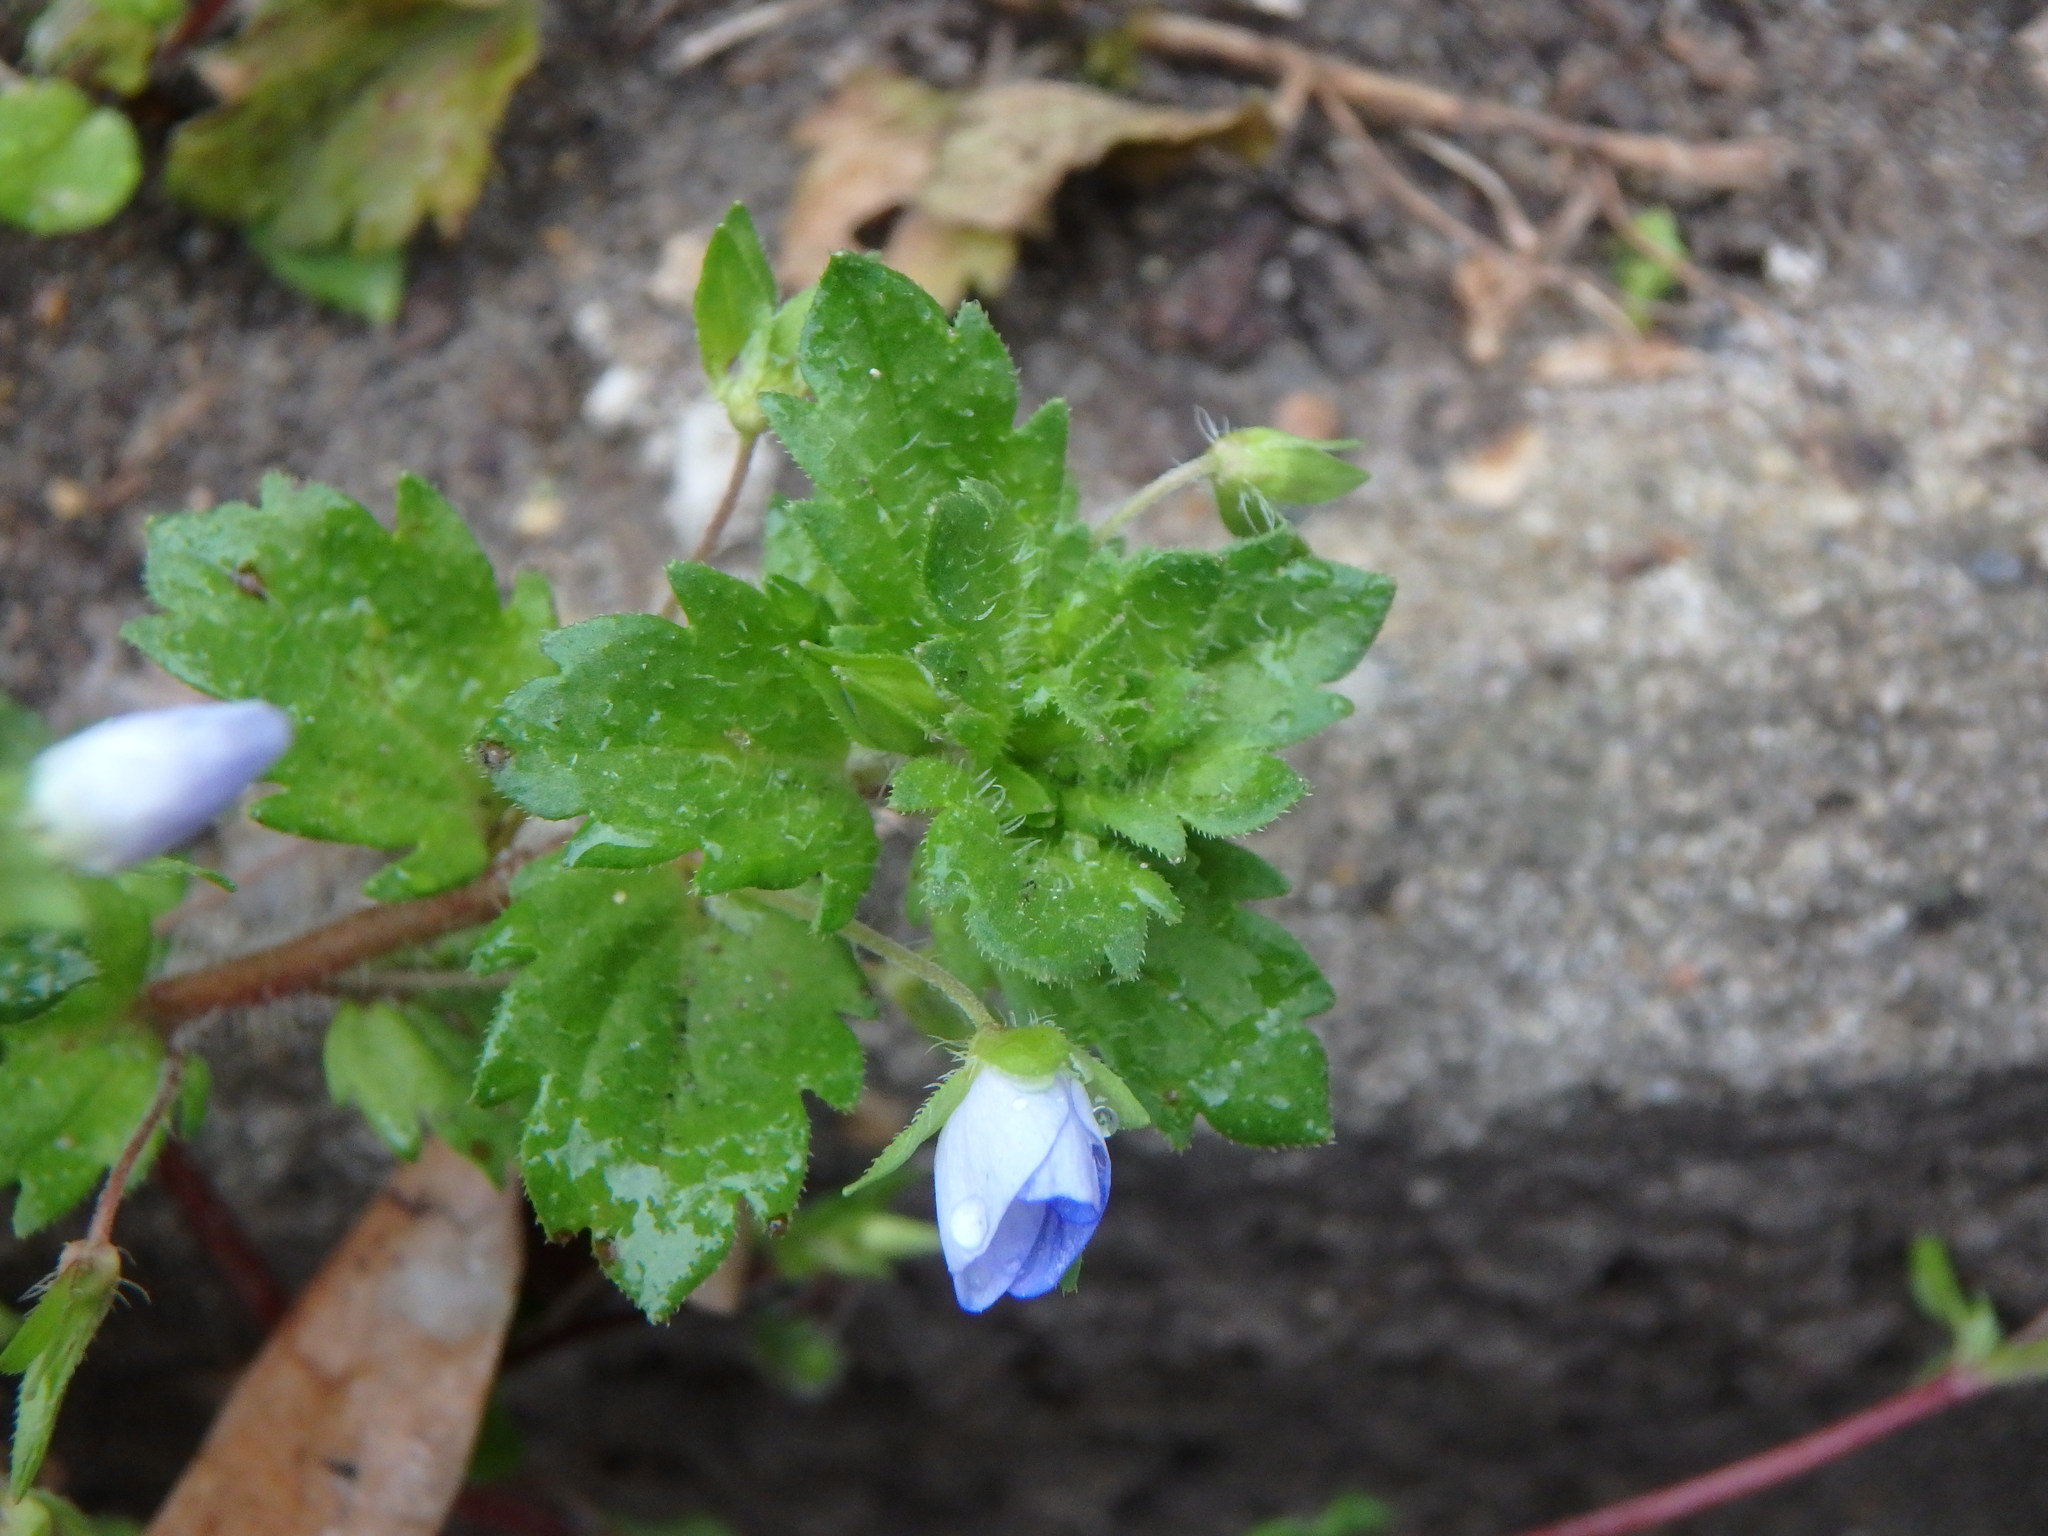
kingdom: Plantae
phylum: Tracheophyta
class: Magnoliopsida
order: Lamiales
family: Plantaginaceae
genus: Veronica
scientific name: Veronica persica
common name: Common field-speedwell
